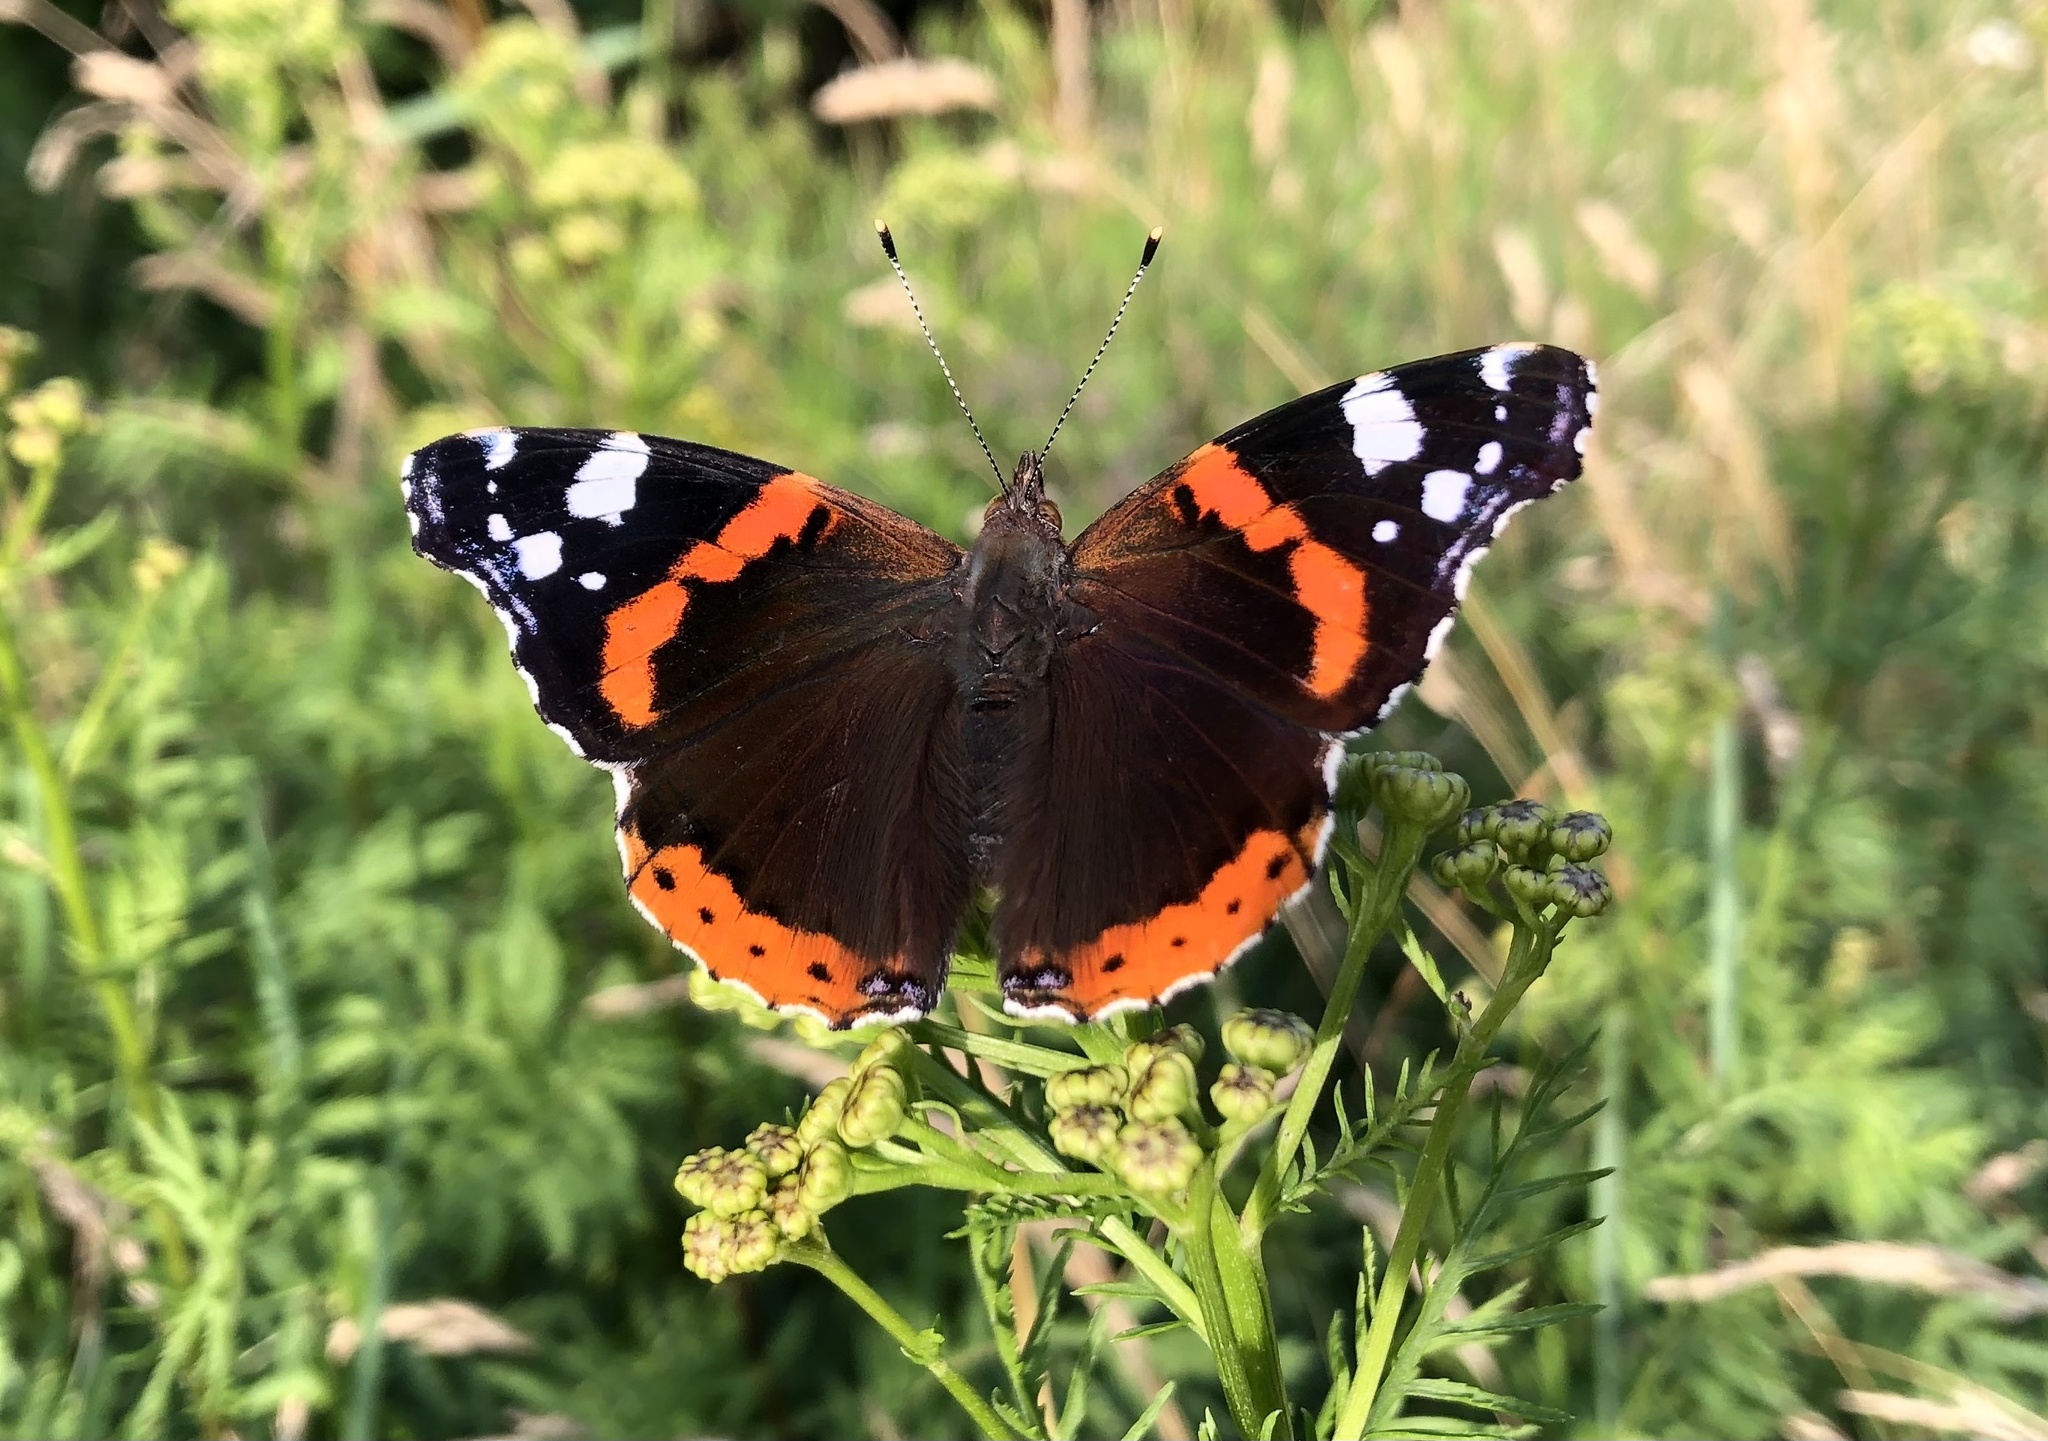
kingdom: Animalia
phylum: Arthropoda
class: Insecta
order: Lepidoptera
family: Nymphalidae
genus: Vanessa
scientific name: Vanessa atalanta
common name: Red admiral
